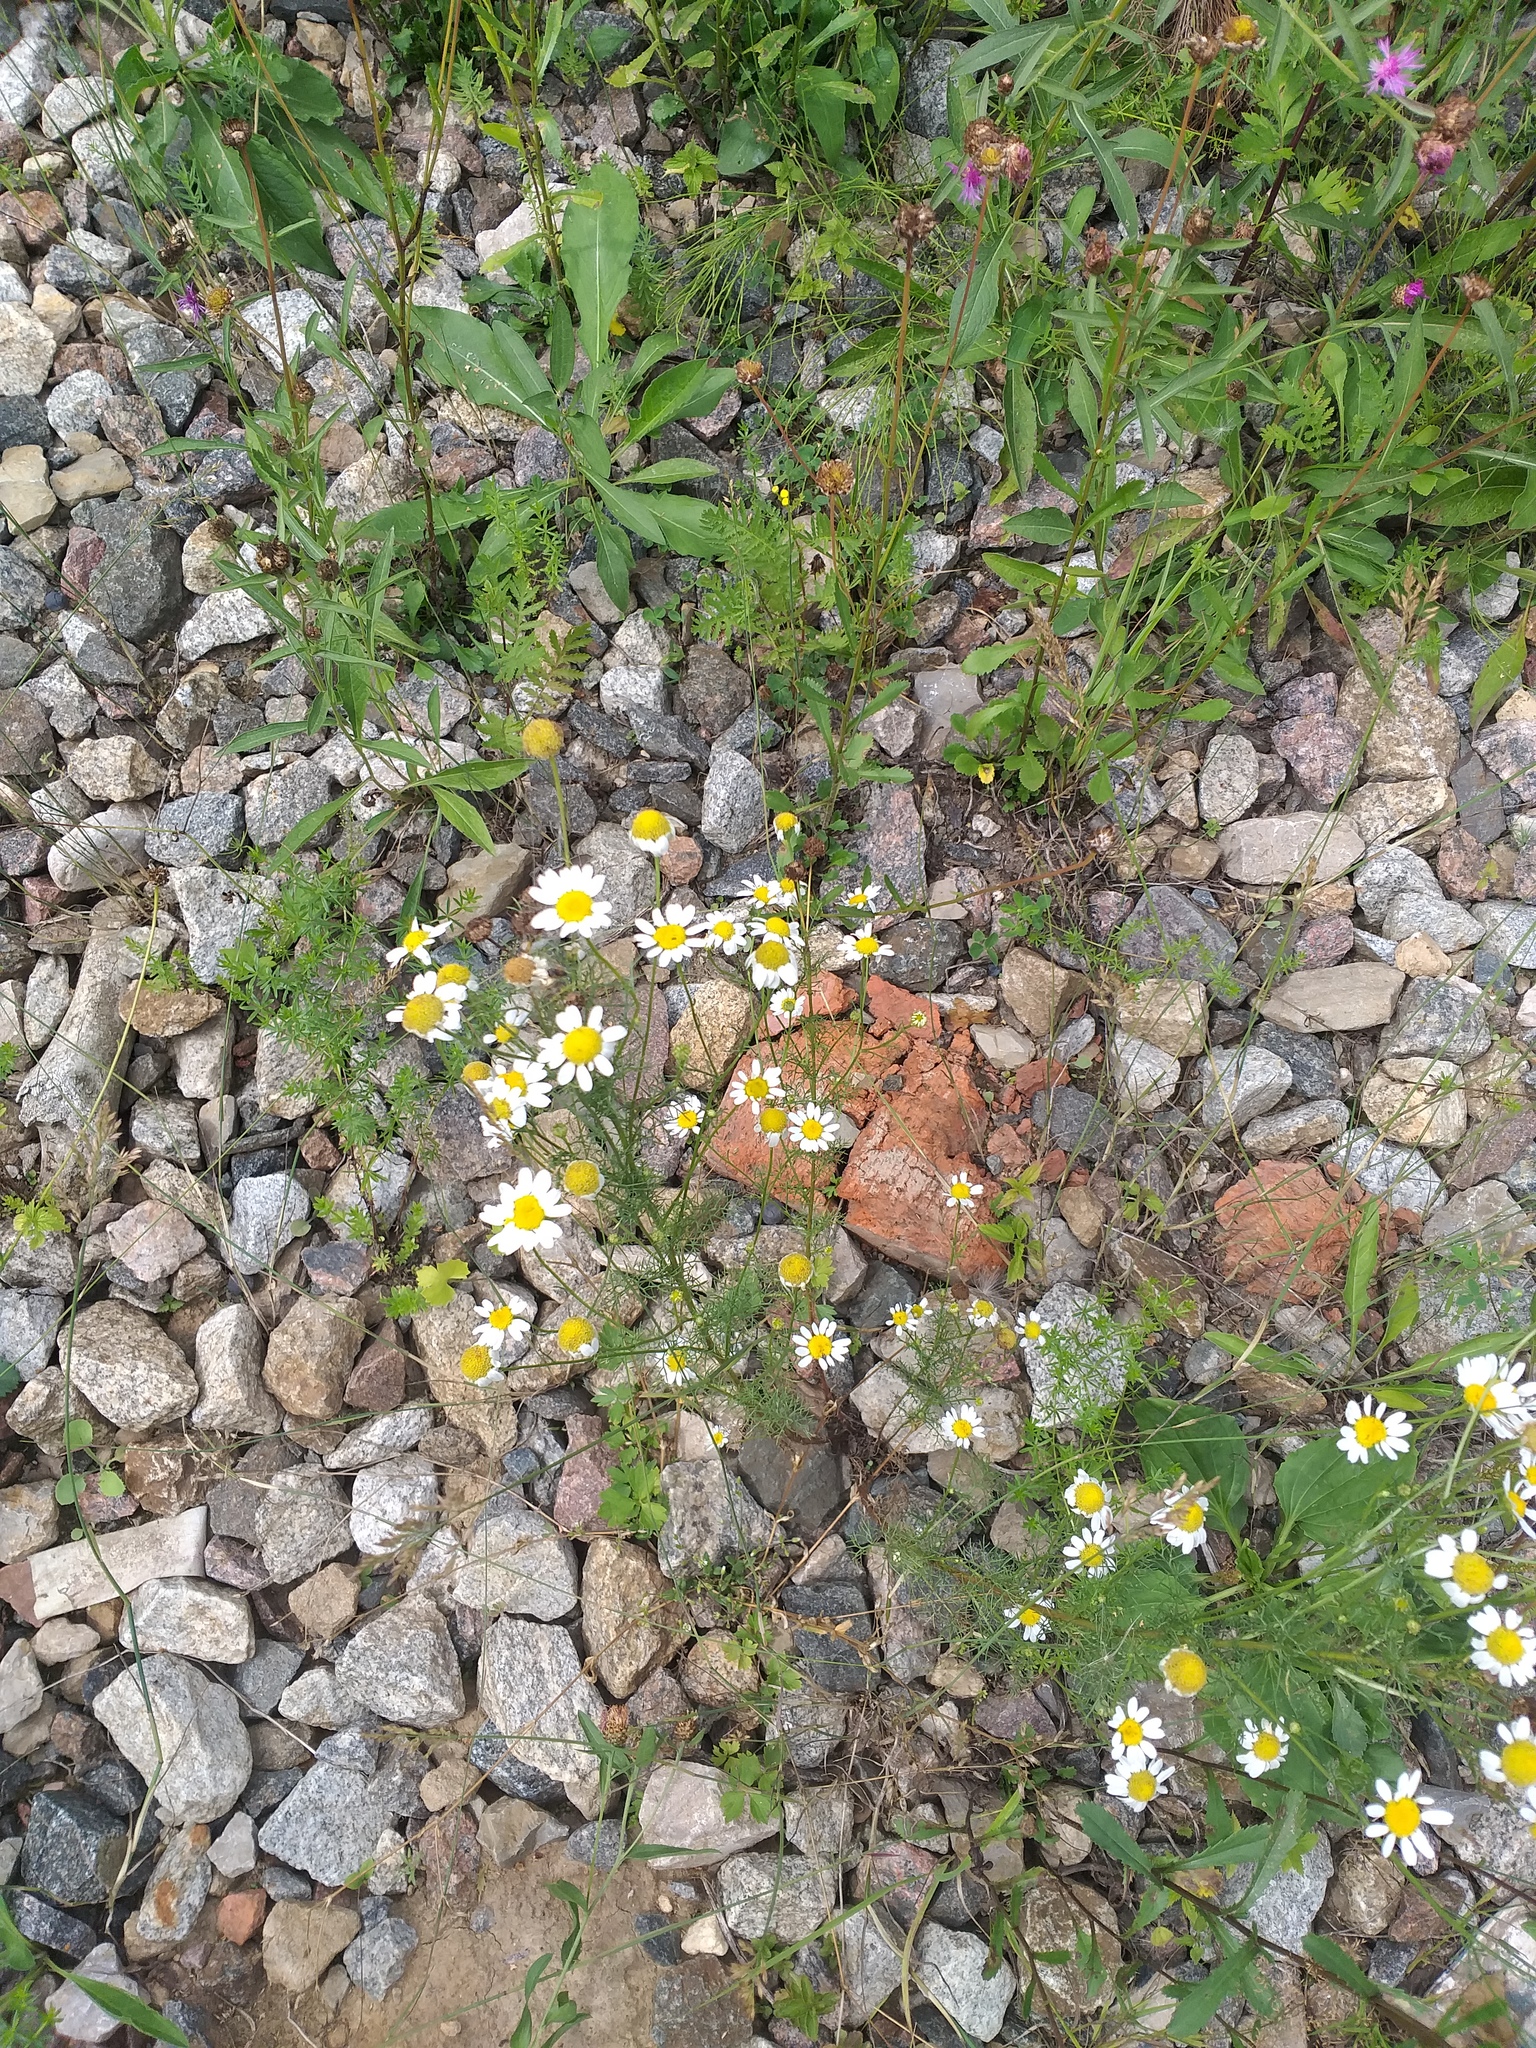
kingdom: Plantae
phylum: Tracheophyta
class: Magnoliopsida
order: Asterales
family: Asteraceae
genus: Tripleurospermum
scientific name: Tripleurospermum inodorum
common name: Scentless mayweed
